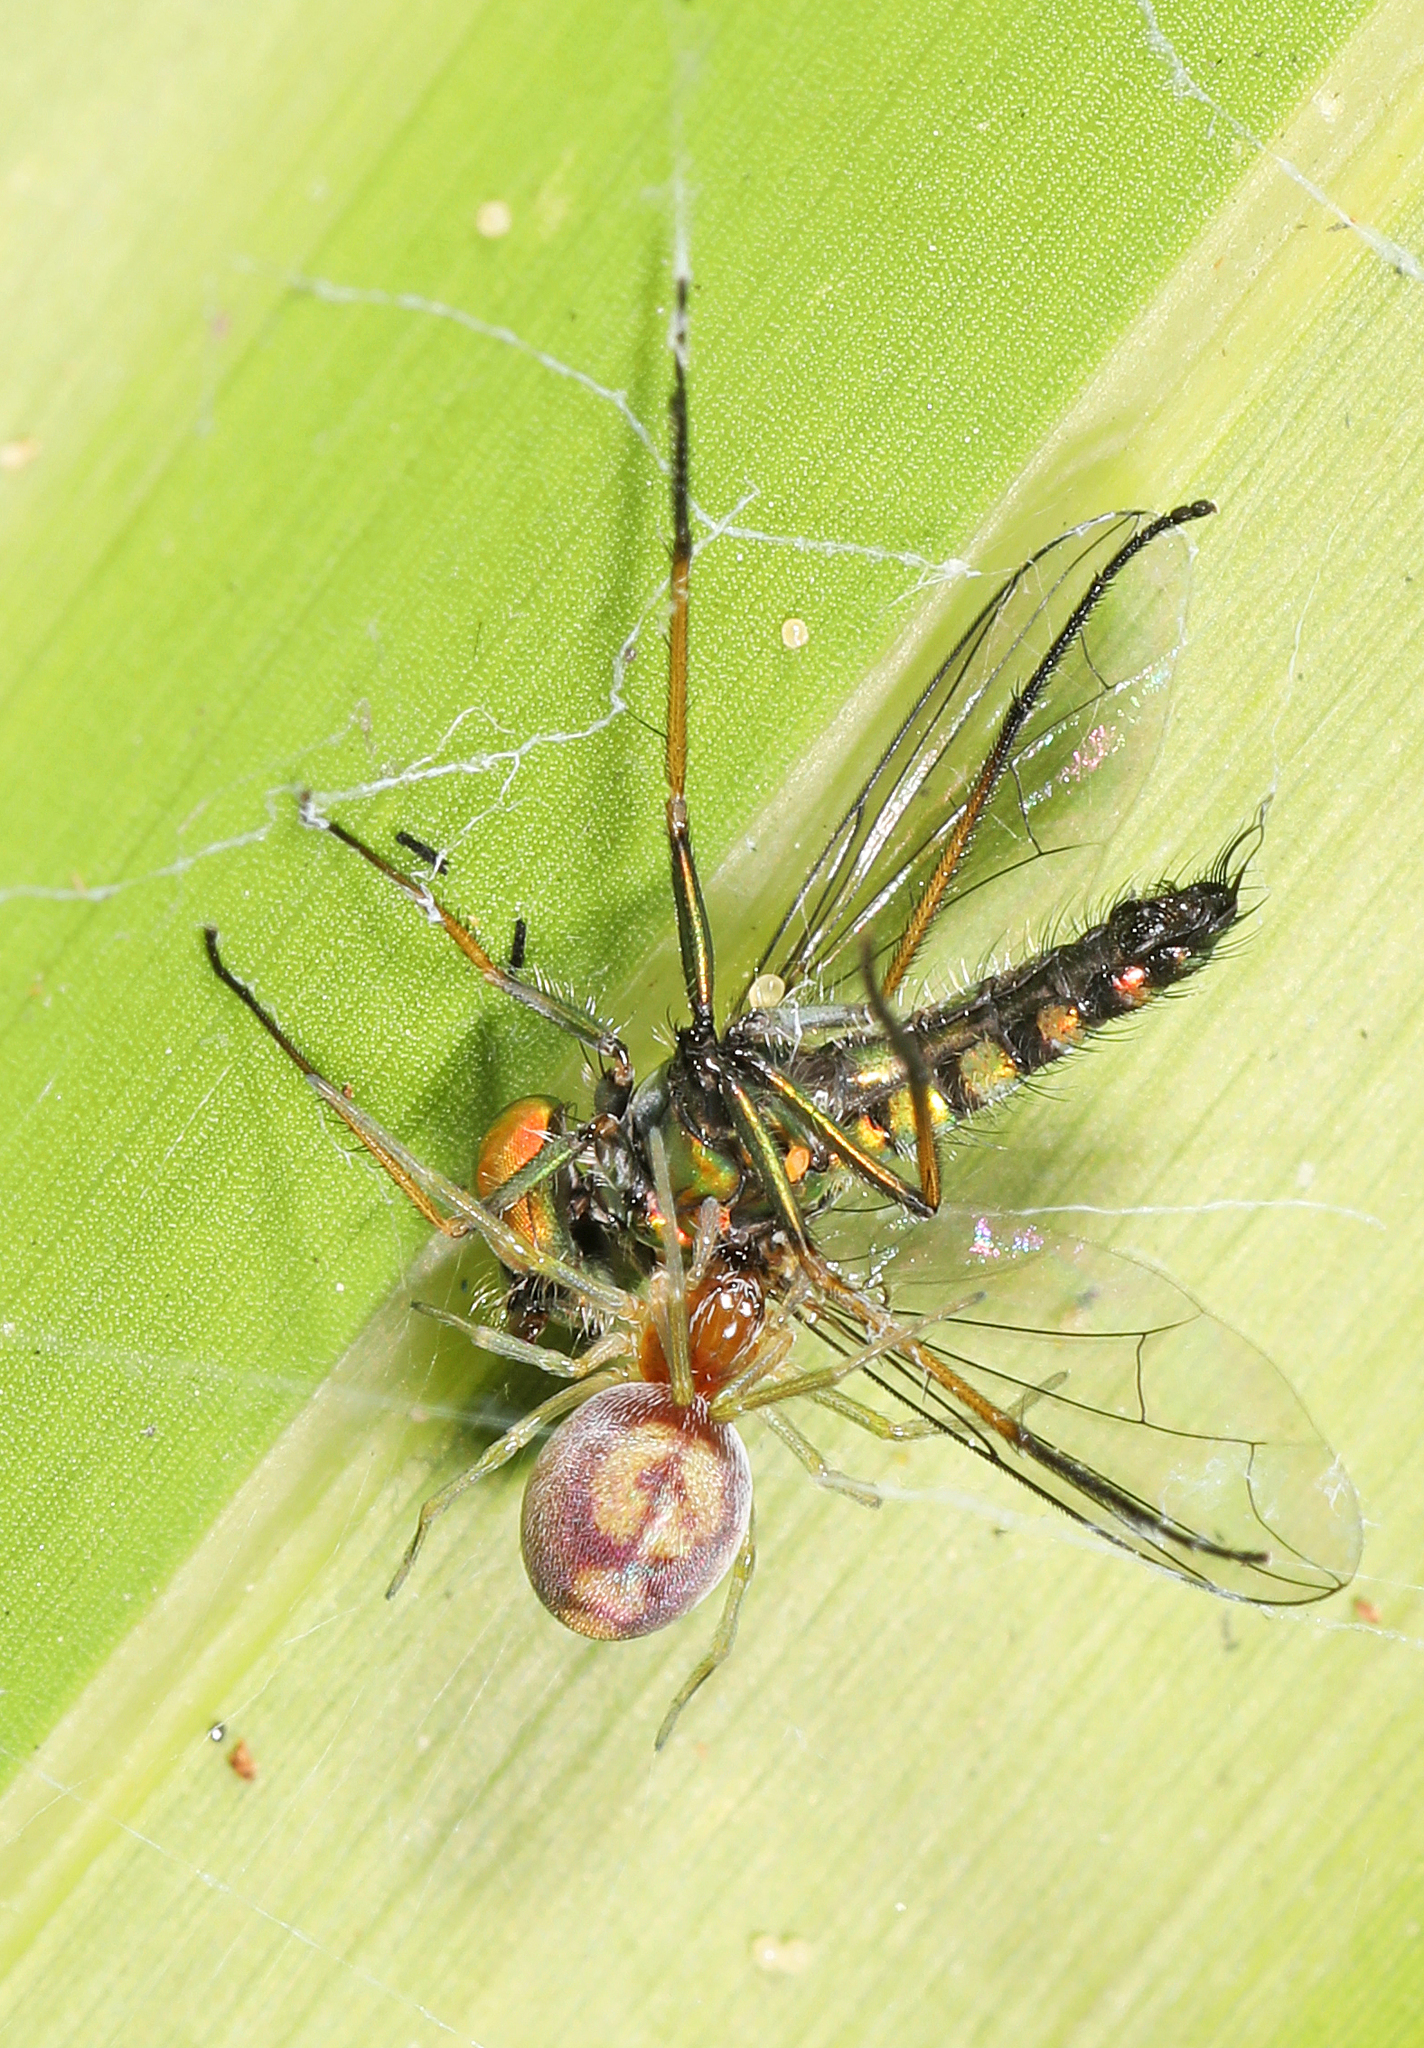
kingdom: Animalia
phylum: Arthropoda
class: Arachnida
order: Araneae
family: Dictynidae
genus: Emblyna
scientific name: Emblyna florens
